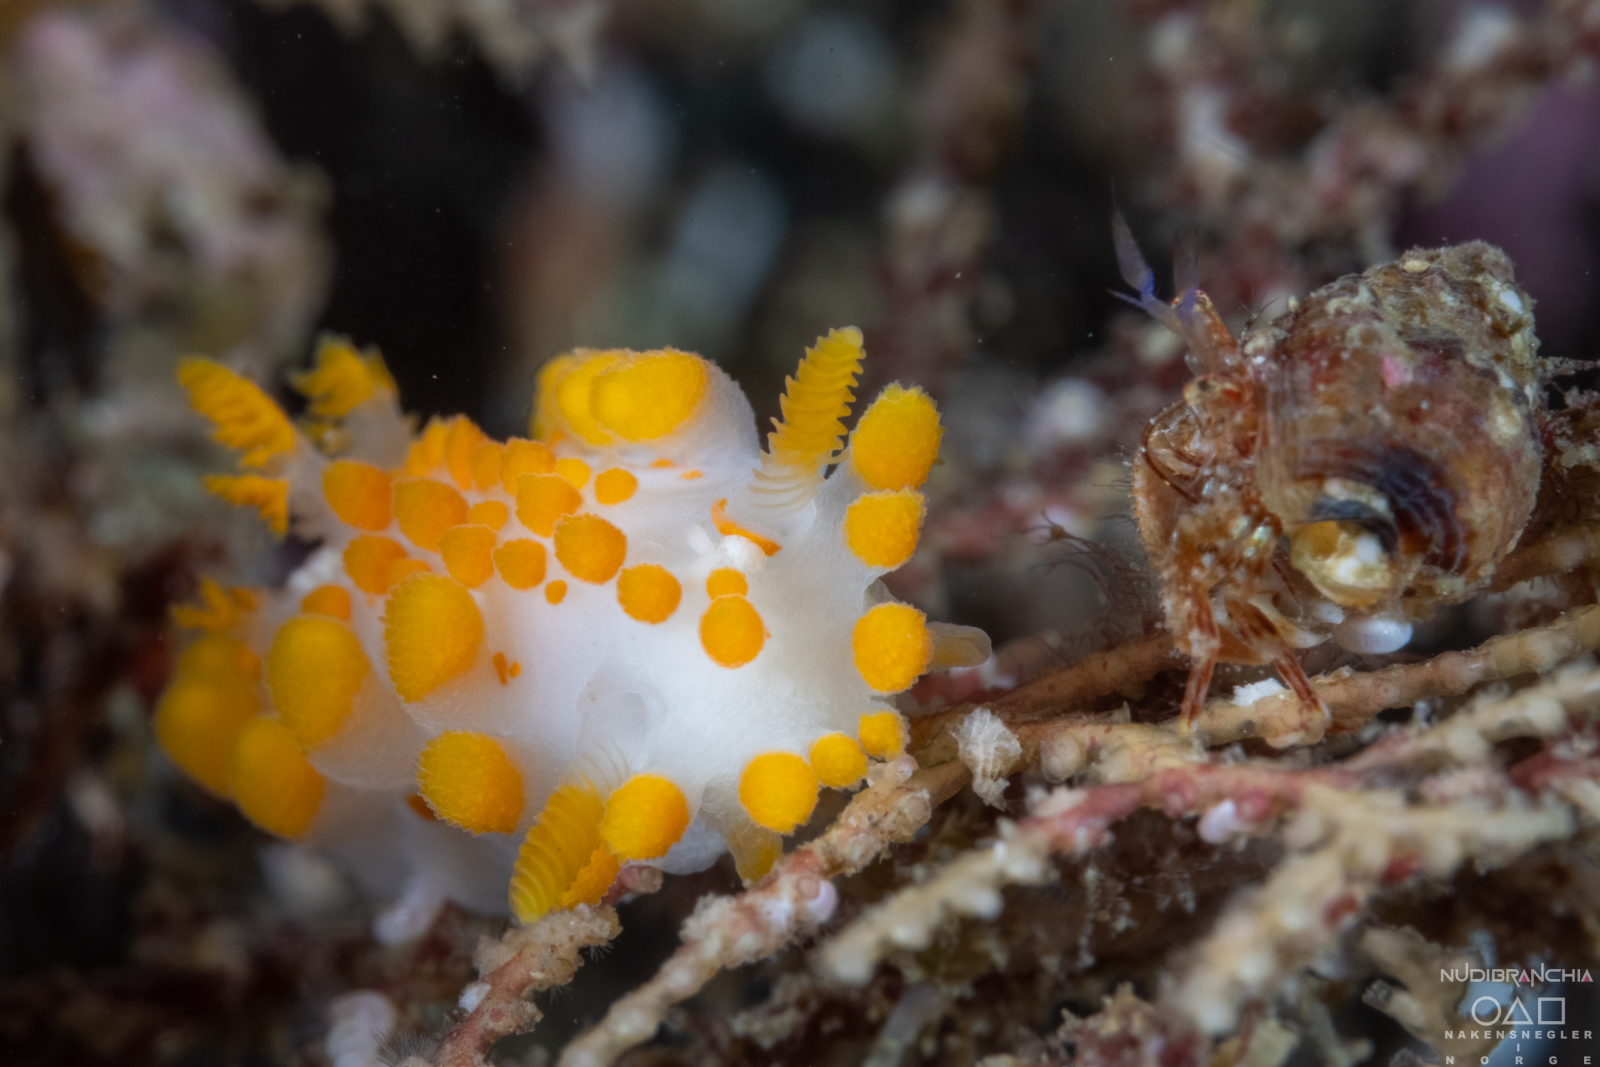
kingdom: Animalia
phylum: Mollusca
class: Gastropoda
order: Nudibranchia
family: Polyceridae
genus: Limacia
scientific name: Limacia clavigera
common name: Orange-clubbed sea slug
